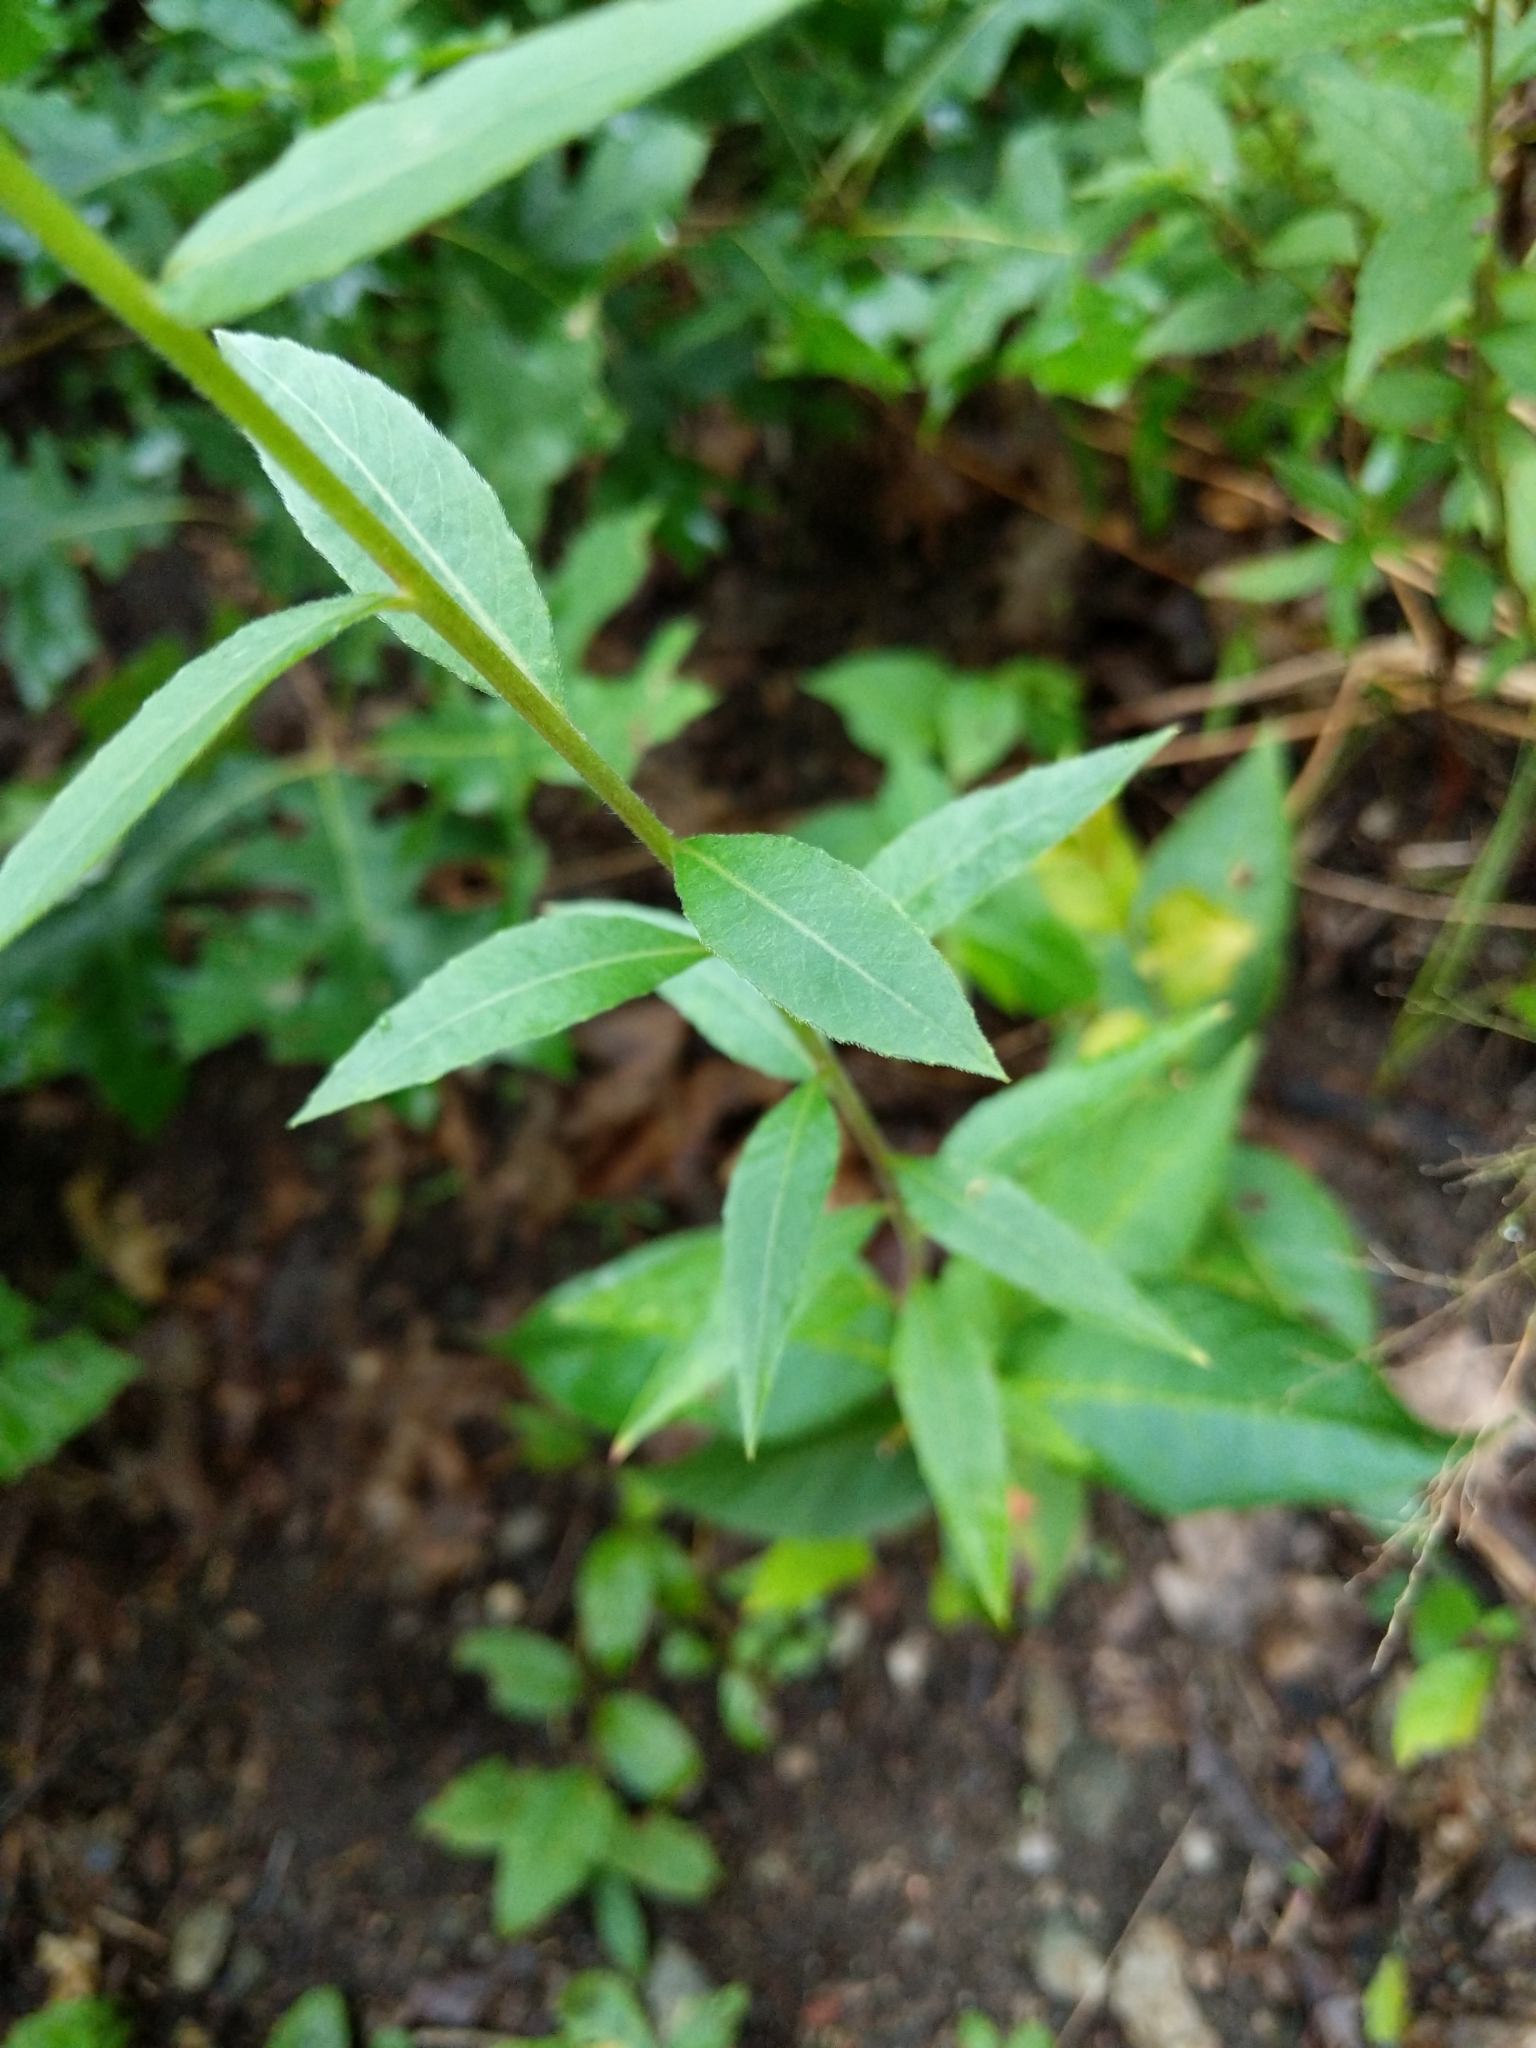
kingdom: Plantae
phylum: Tracheophyta
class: Magnoliopsida
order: Myrtales
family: Onagraceae
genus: Oenothera
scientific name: Oenothera biennis
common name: Common evening-primrose
